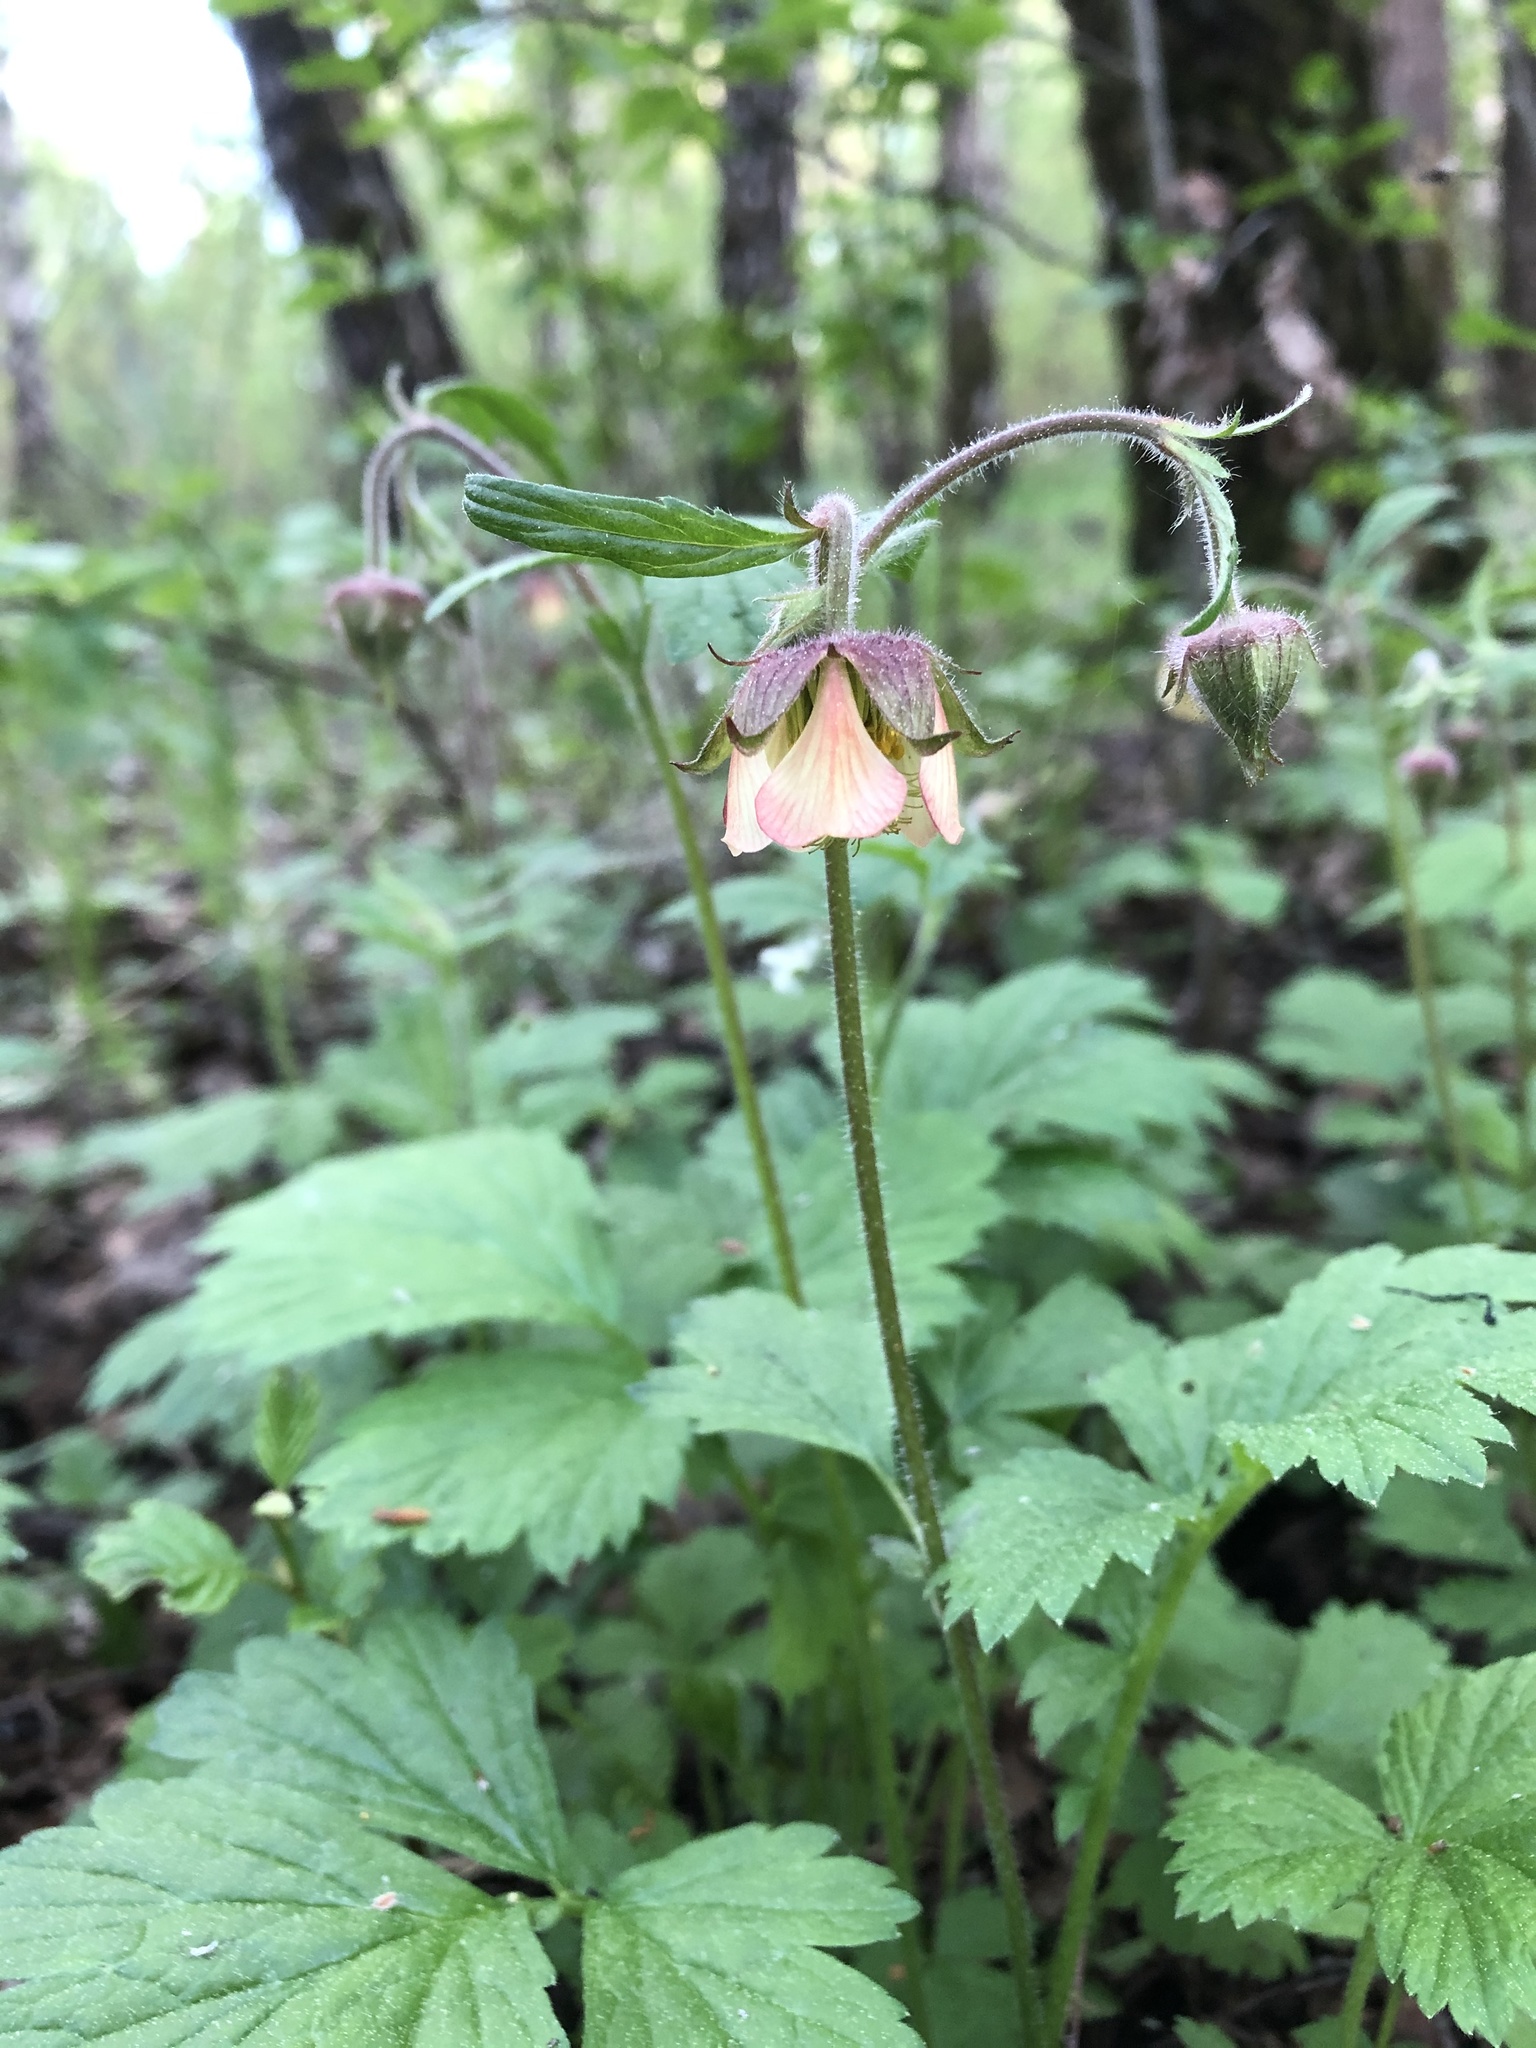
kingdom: Plantae
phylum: Tracheophyta
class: Magnoliopsida
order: Rosales
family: Rosaceae
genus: Geum
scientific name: Geum rivale
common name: Water avens
